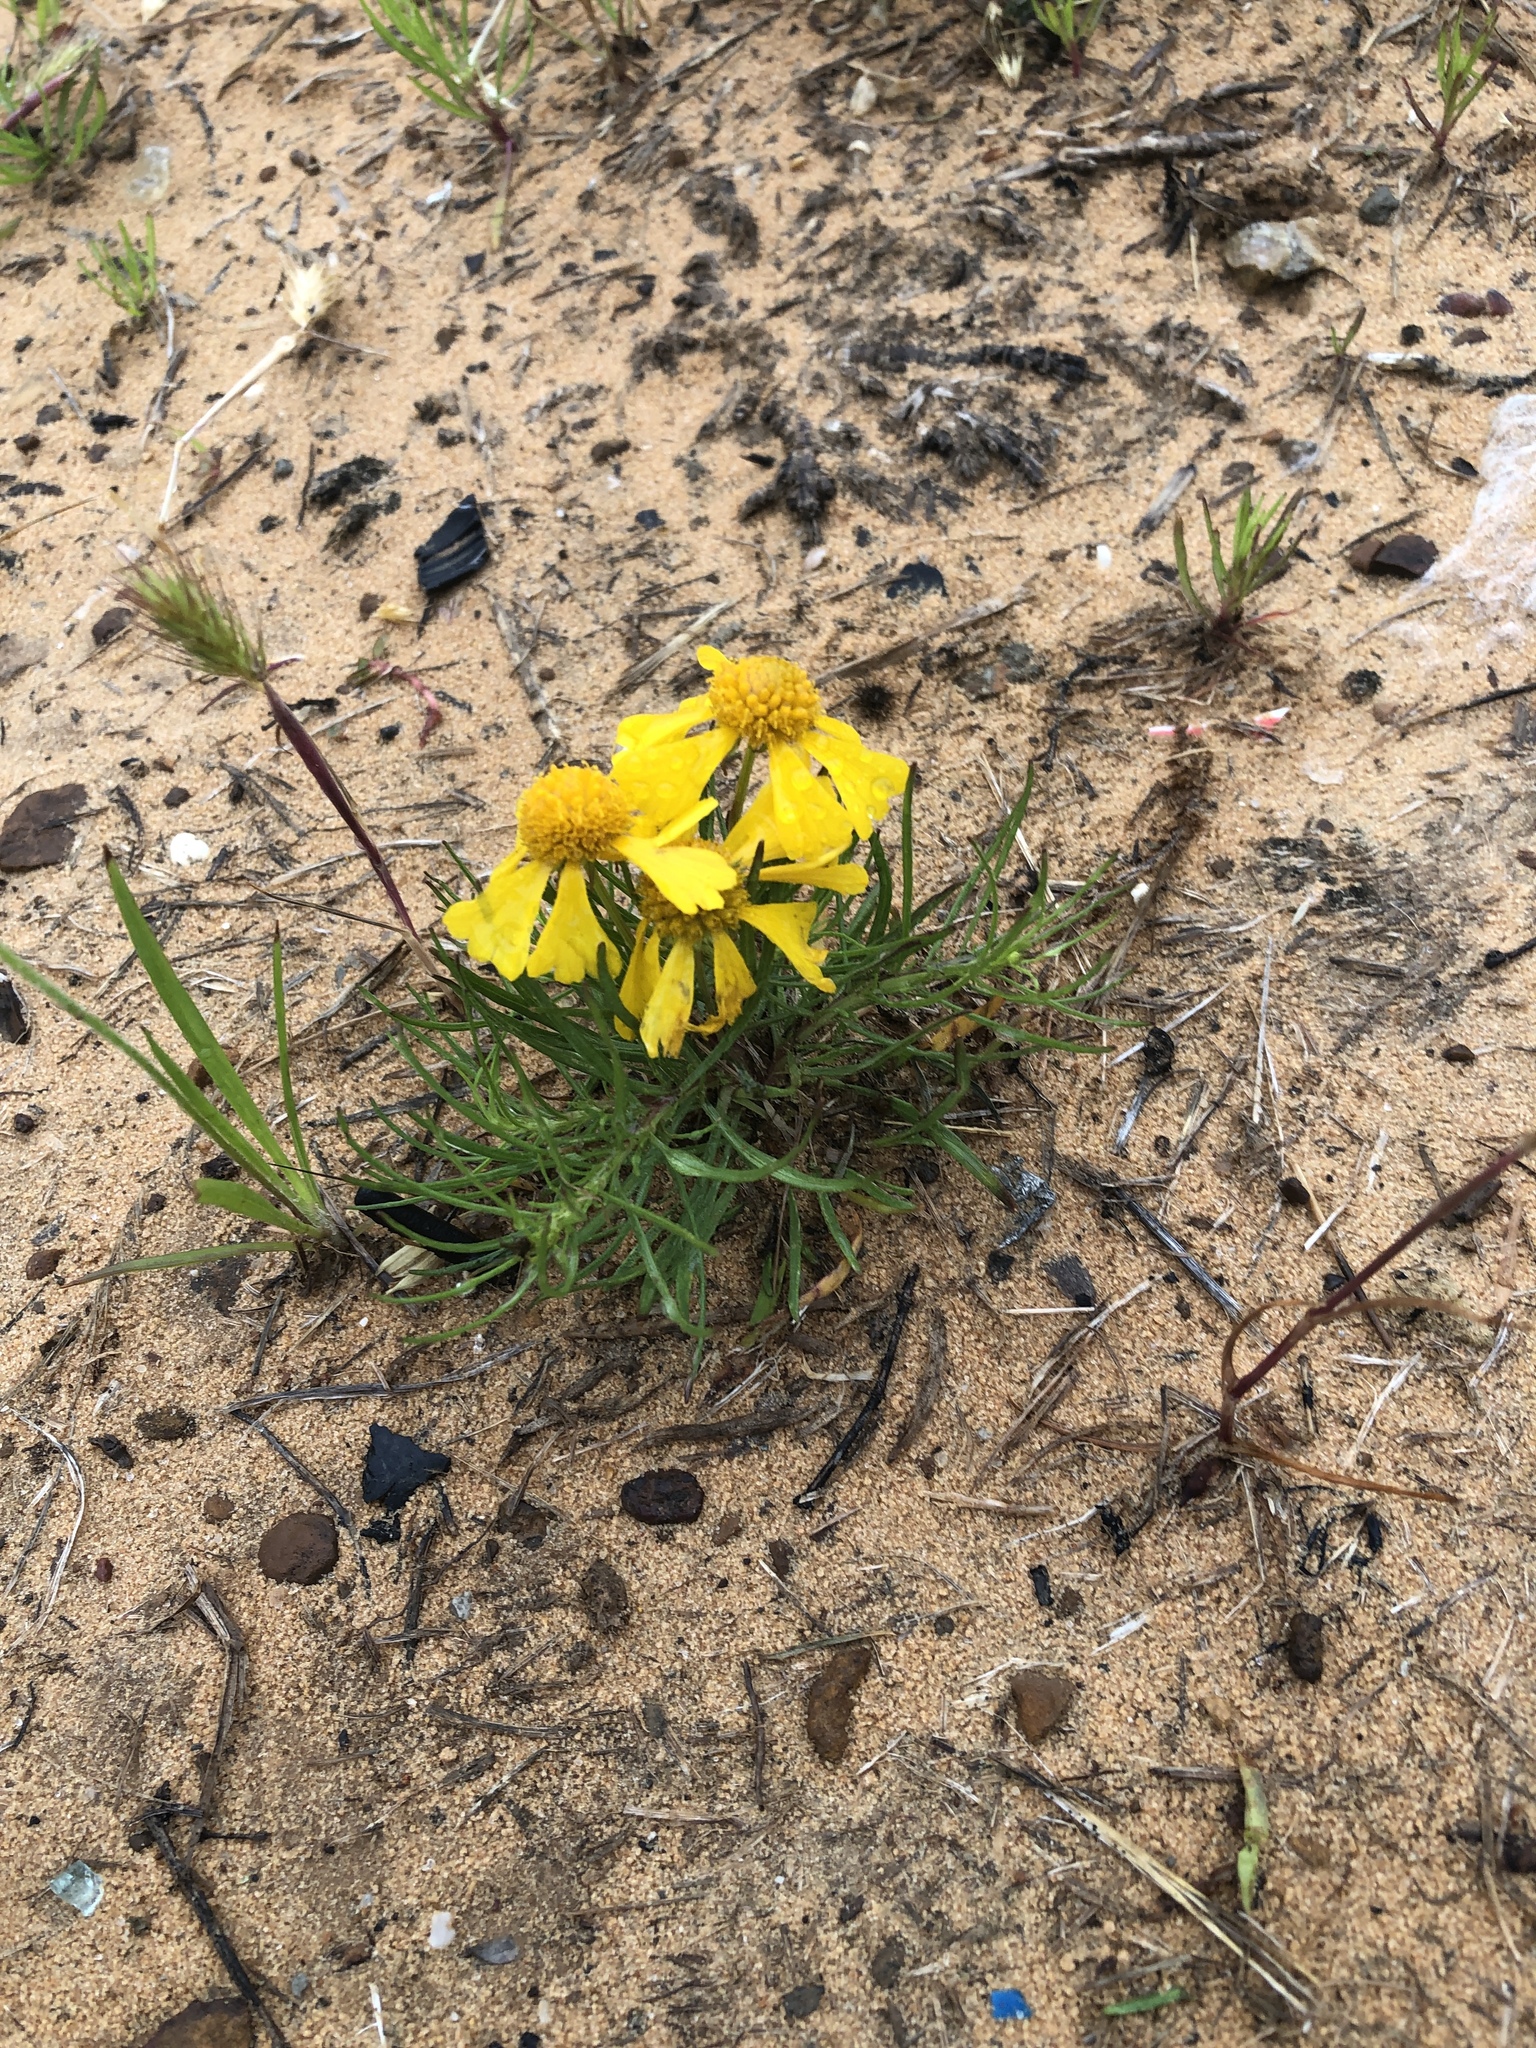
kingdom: Plantae
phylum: Tracheophyta
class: Magnoliopsida
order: Asterales
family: Asteraceae
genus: Helenium
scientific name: Helenium amarum
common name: Bitter sneezeweed
